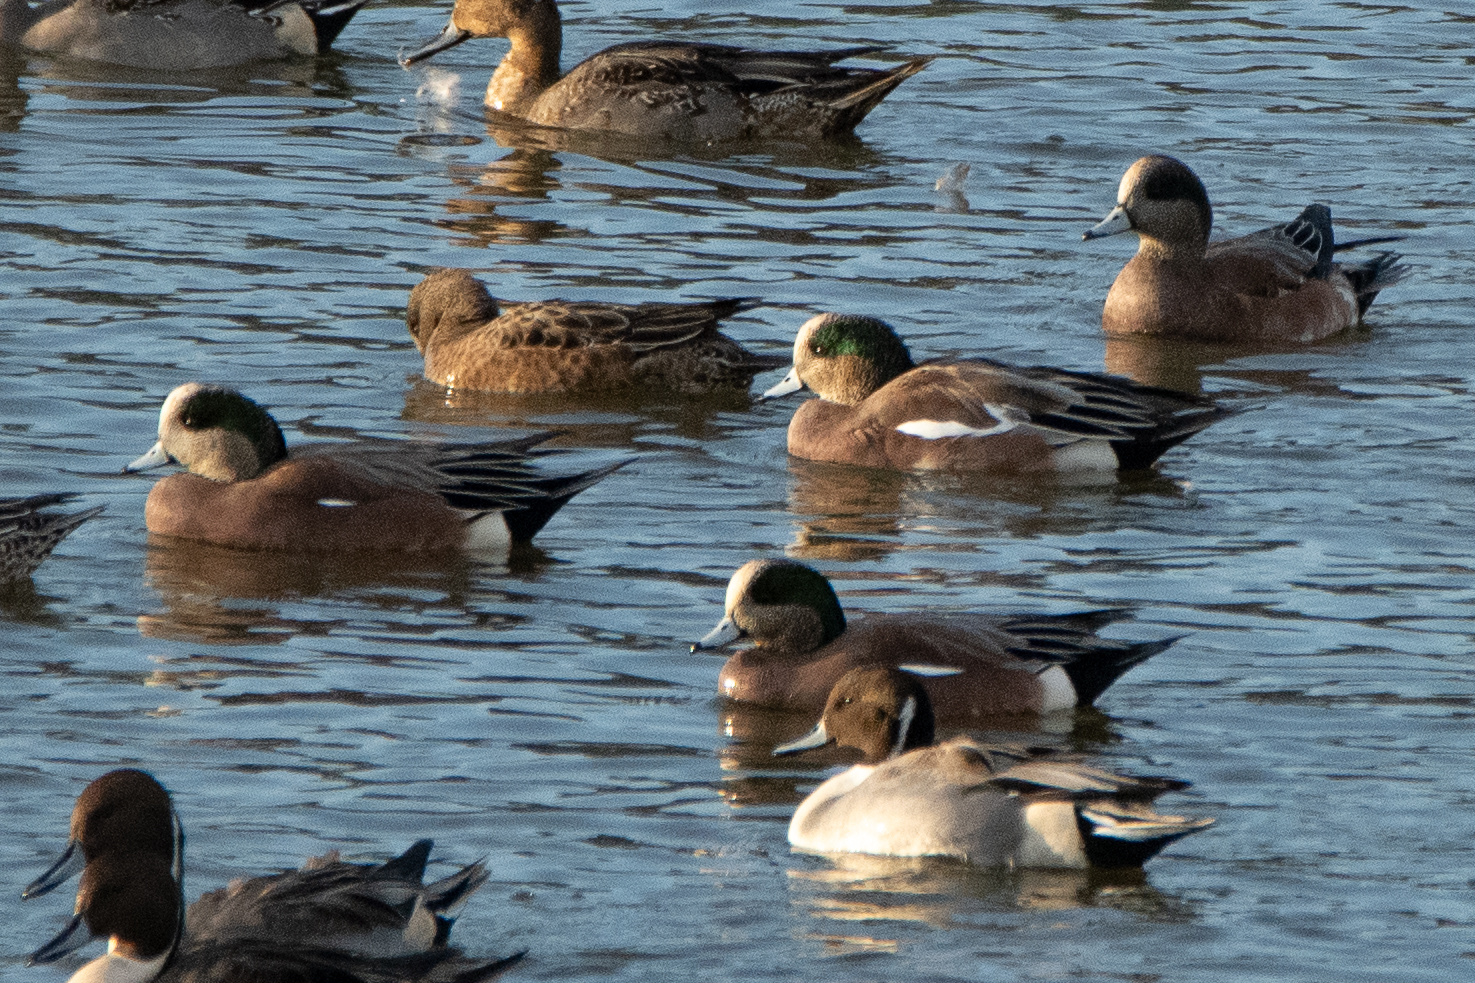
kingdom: Animalia
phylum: Chordata
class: Aves
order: Anseriformes
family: Anatidae
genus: Mareca
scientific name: Mareca americana
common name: American wigeon
